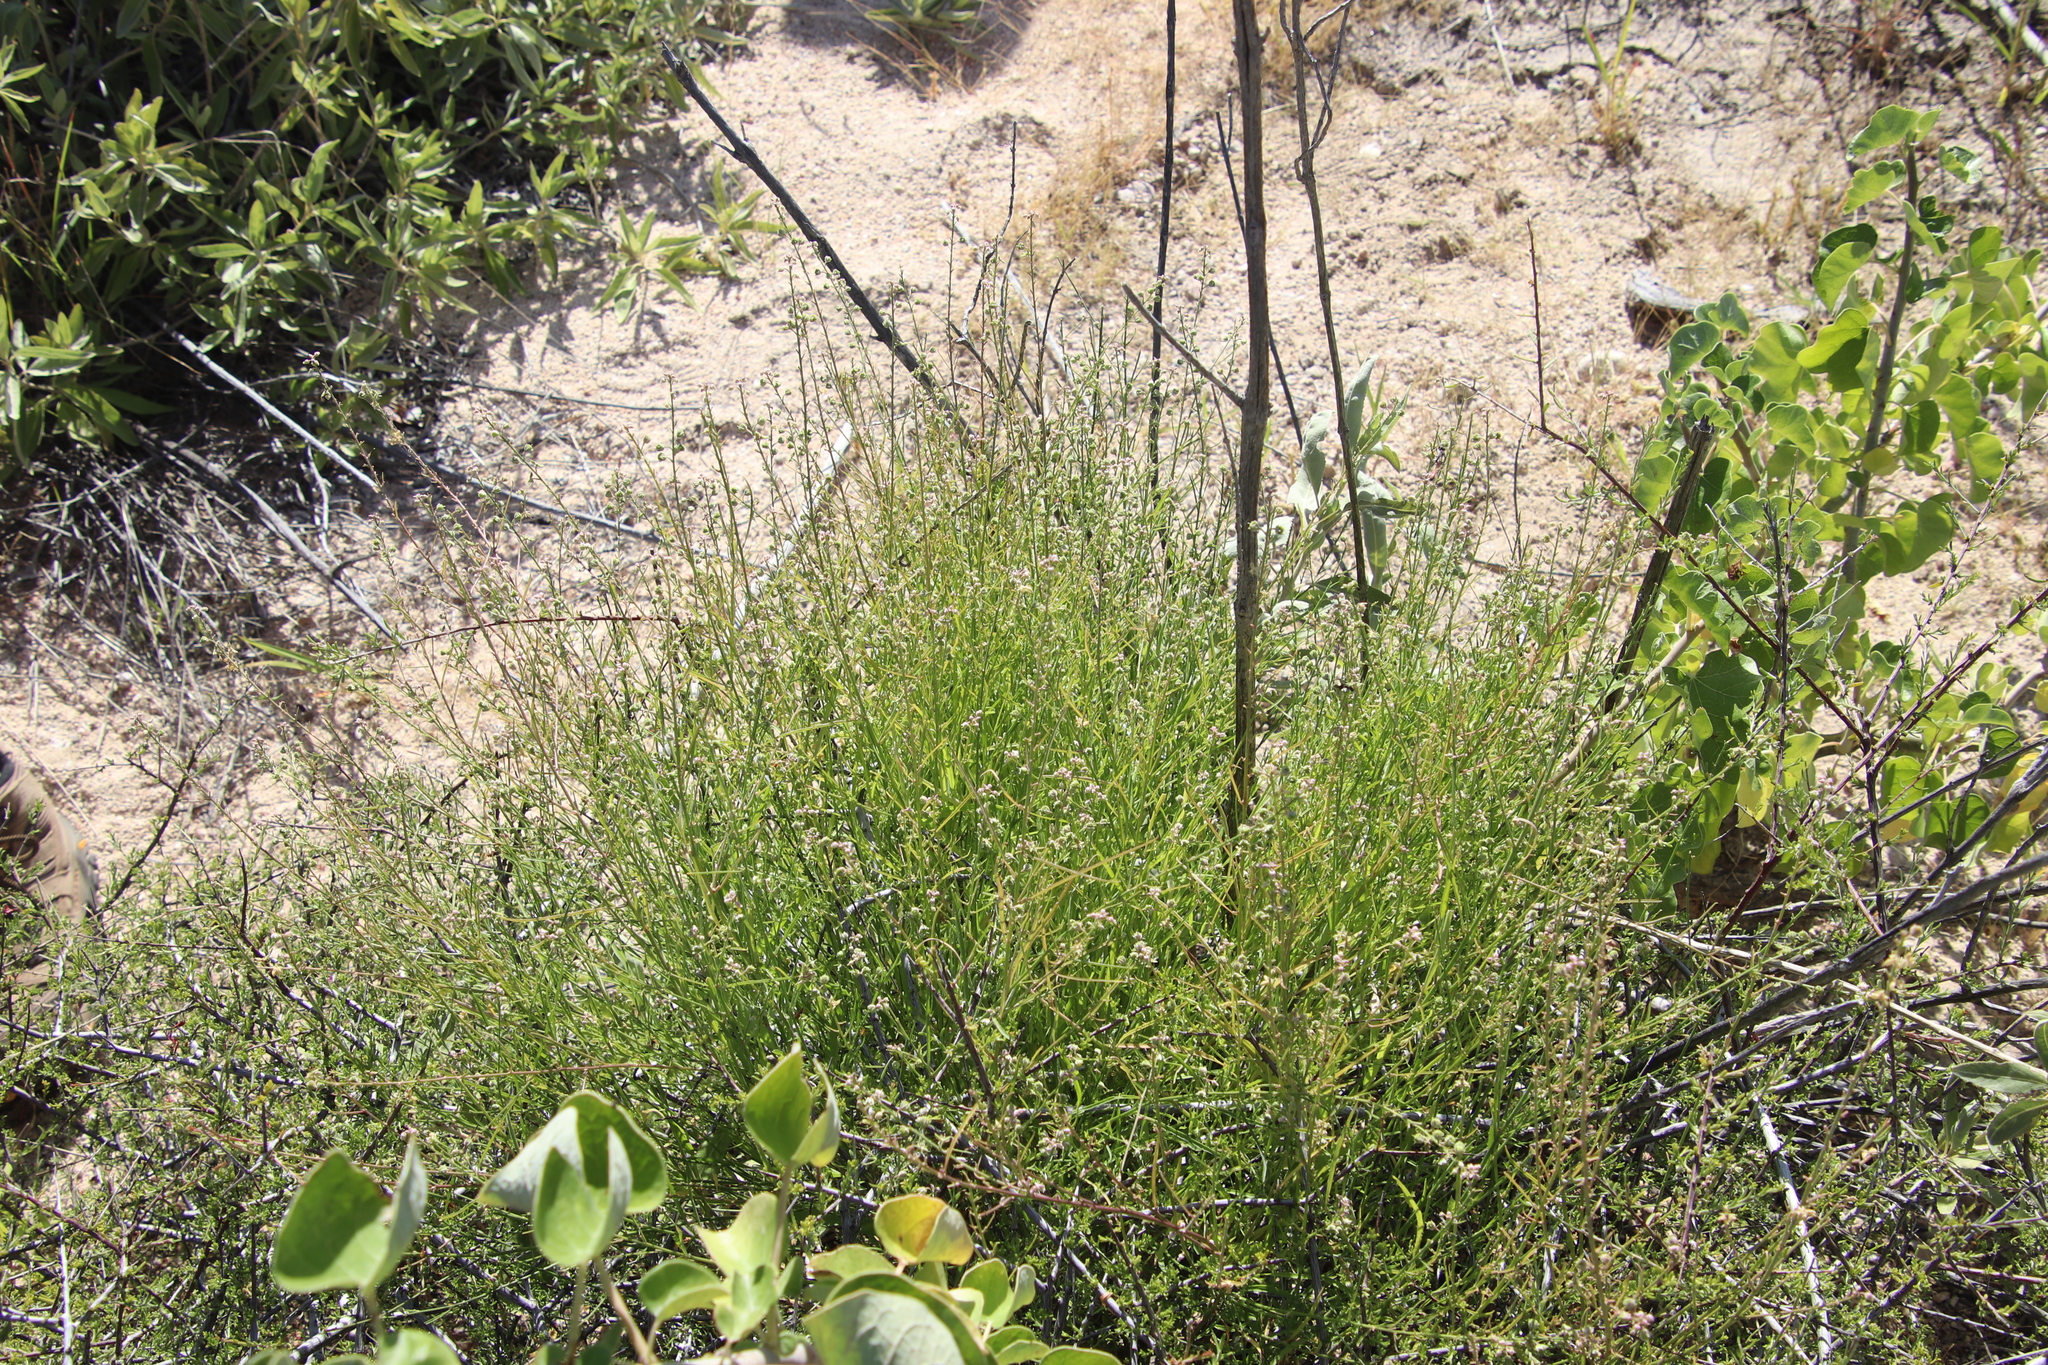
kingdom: Plantae
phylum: Tracheophyta
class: Magnoliopsida
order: Malpighiales
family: Violaceae
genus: Hybanthus
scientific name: Hybanthus fruticulosus
